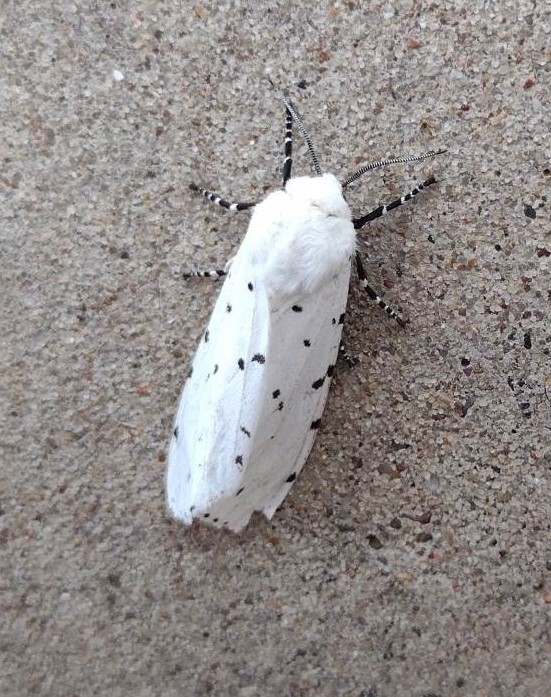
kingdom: Animalia
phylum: Arthropoda
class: Insecta
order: Lepidoptera
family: Erebidae
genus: Estigmene
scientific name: Estigmene acrea
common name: Salt marsh moth
